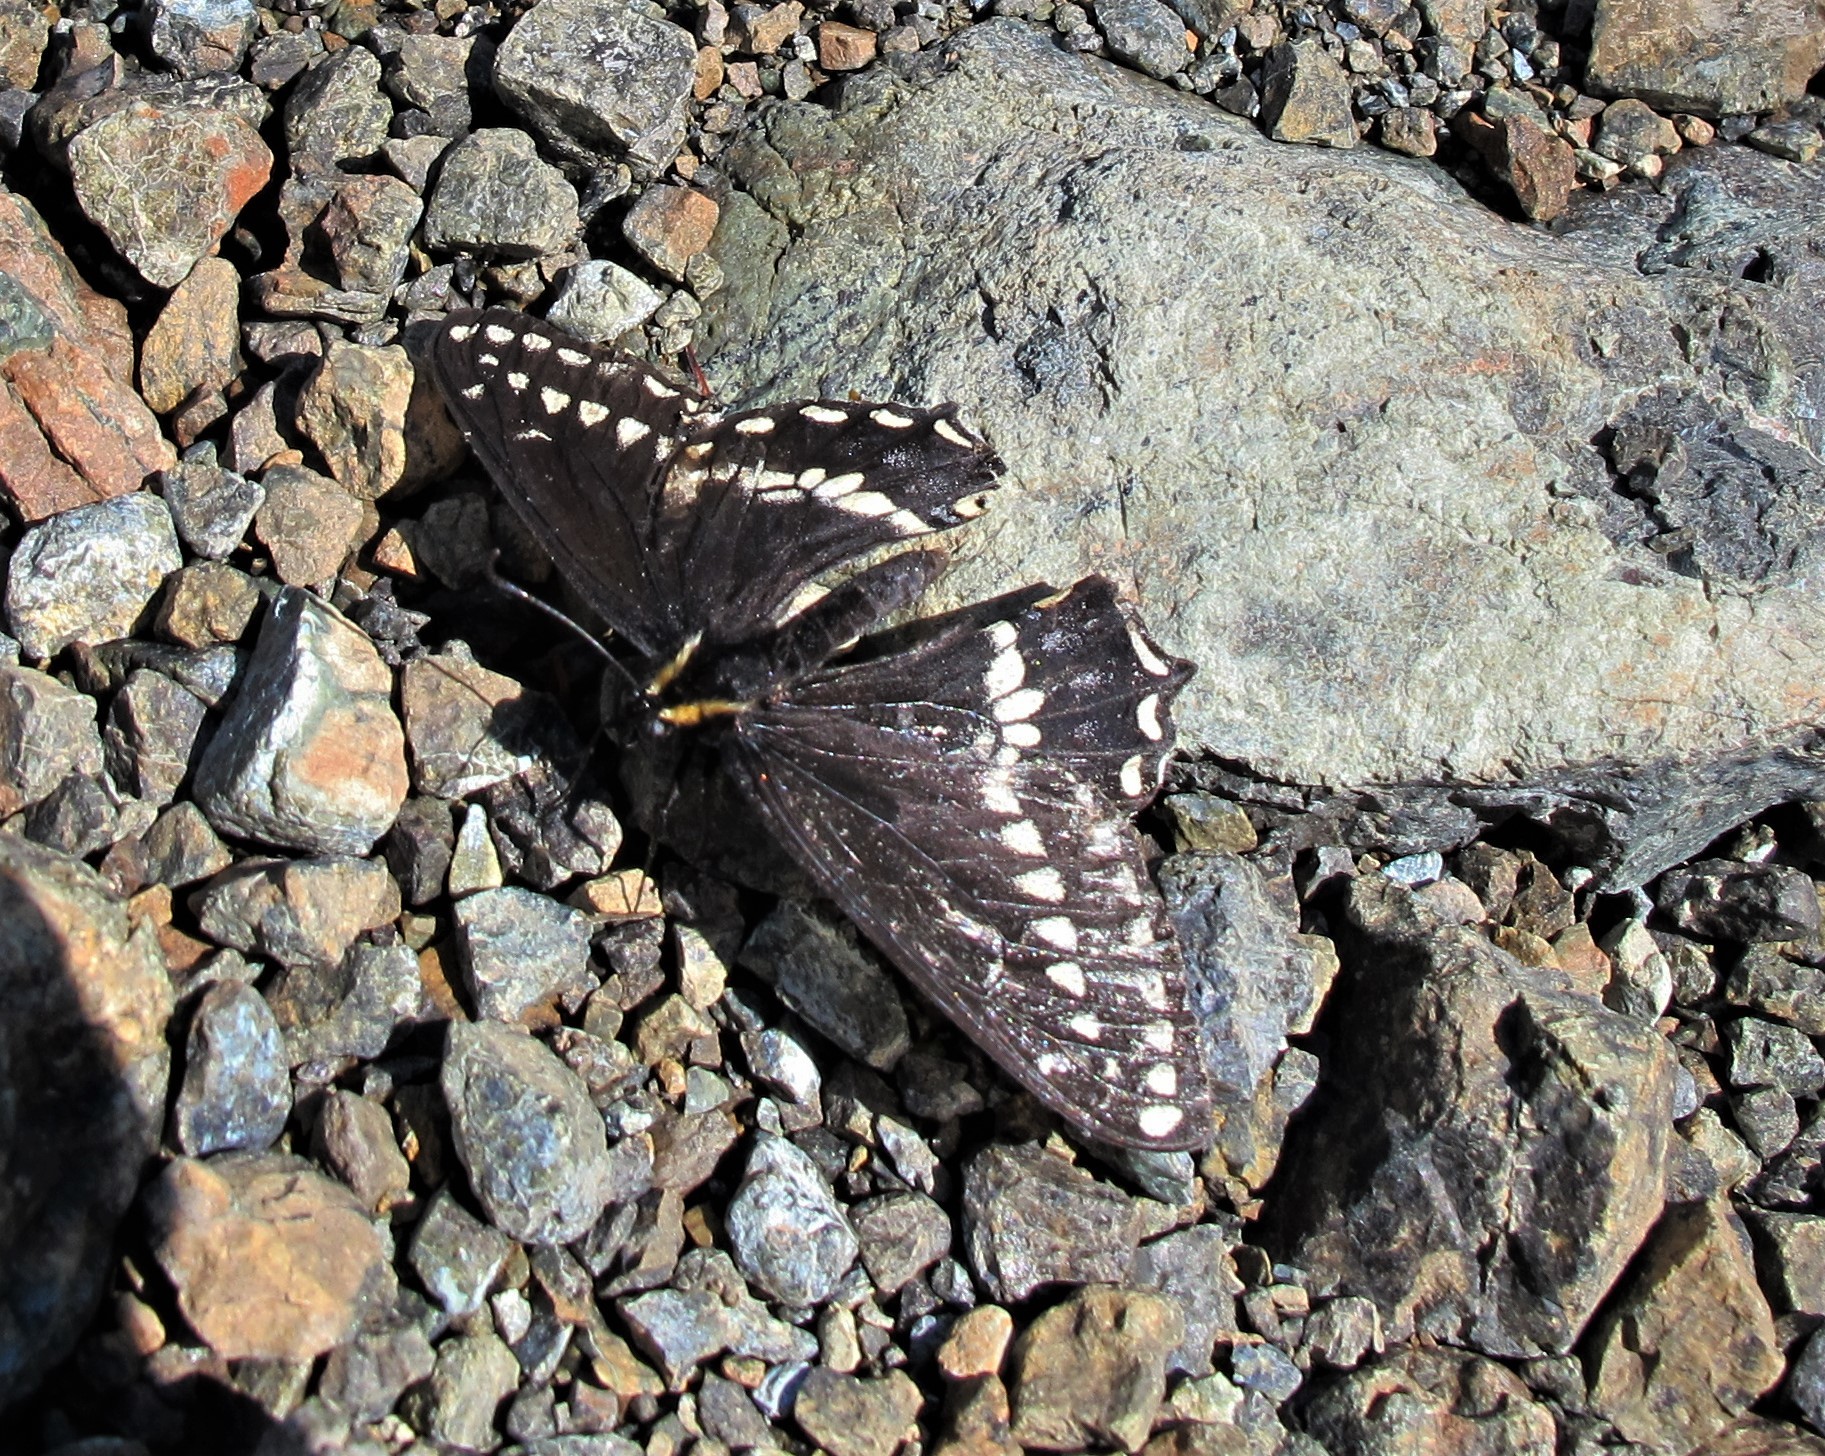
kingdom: Animalia
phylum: Arthropoda
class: Insecta
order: Lepidoptera
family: Papilionidae
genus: Papilio
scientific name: Papilio indra
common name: Cliff swallowtail
